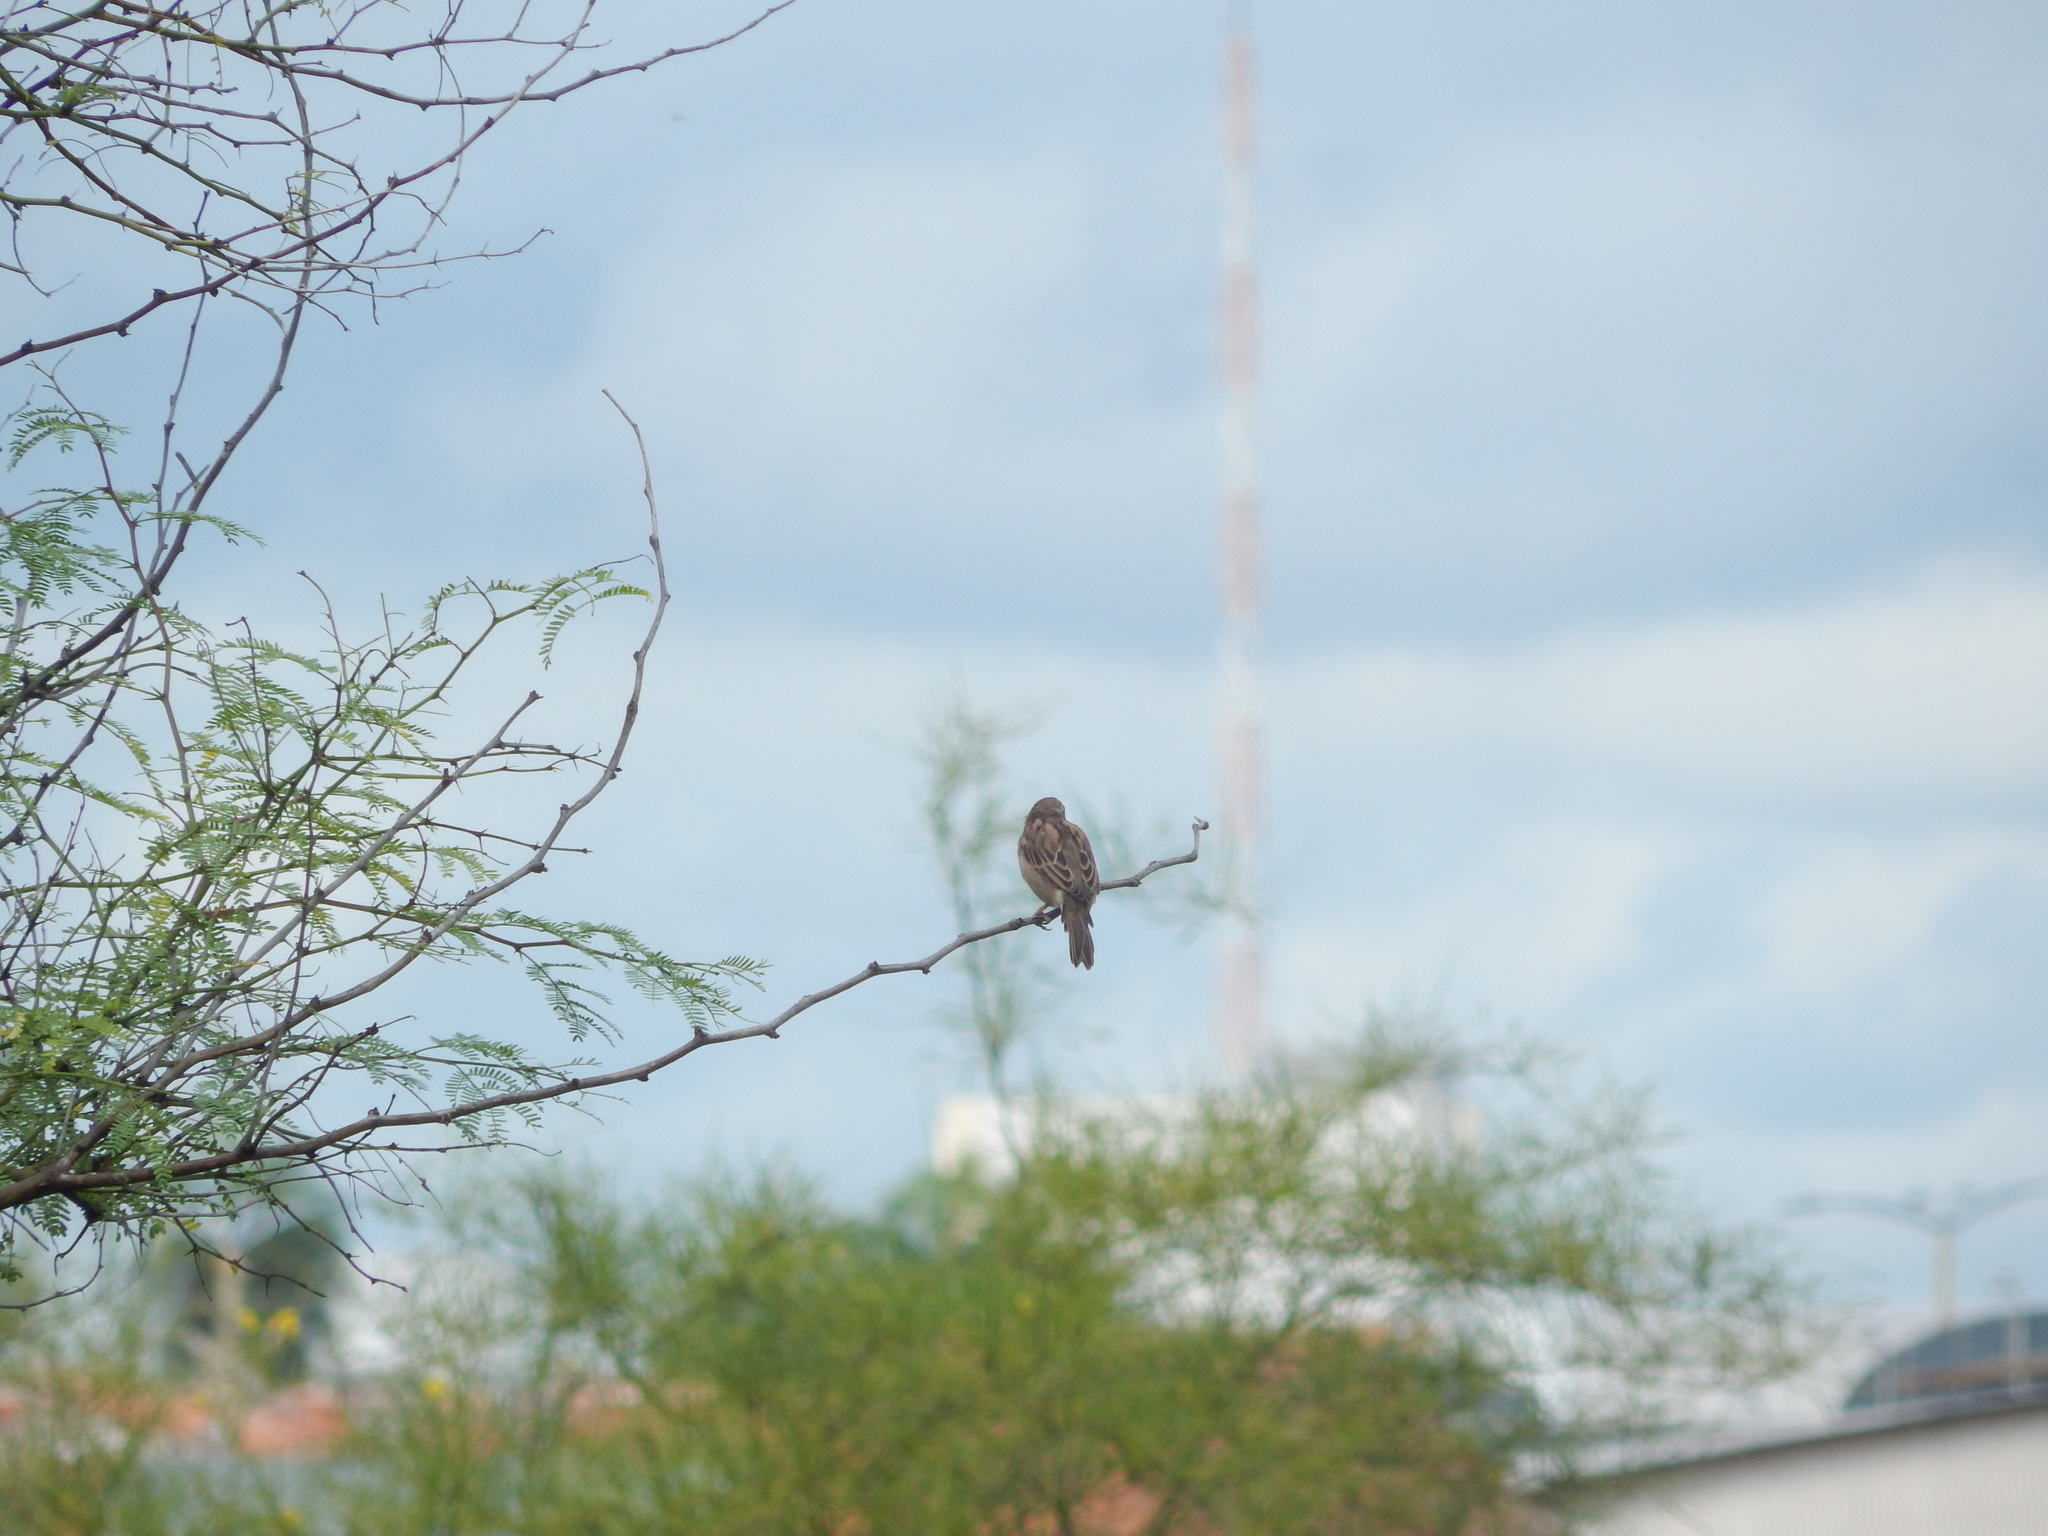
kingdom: Animalia
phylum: Chordata
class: Aves
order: Passeriformes
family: Passeridae
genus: Passer
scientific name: Passer domesticus
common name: House sparrow
